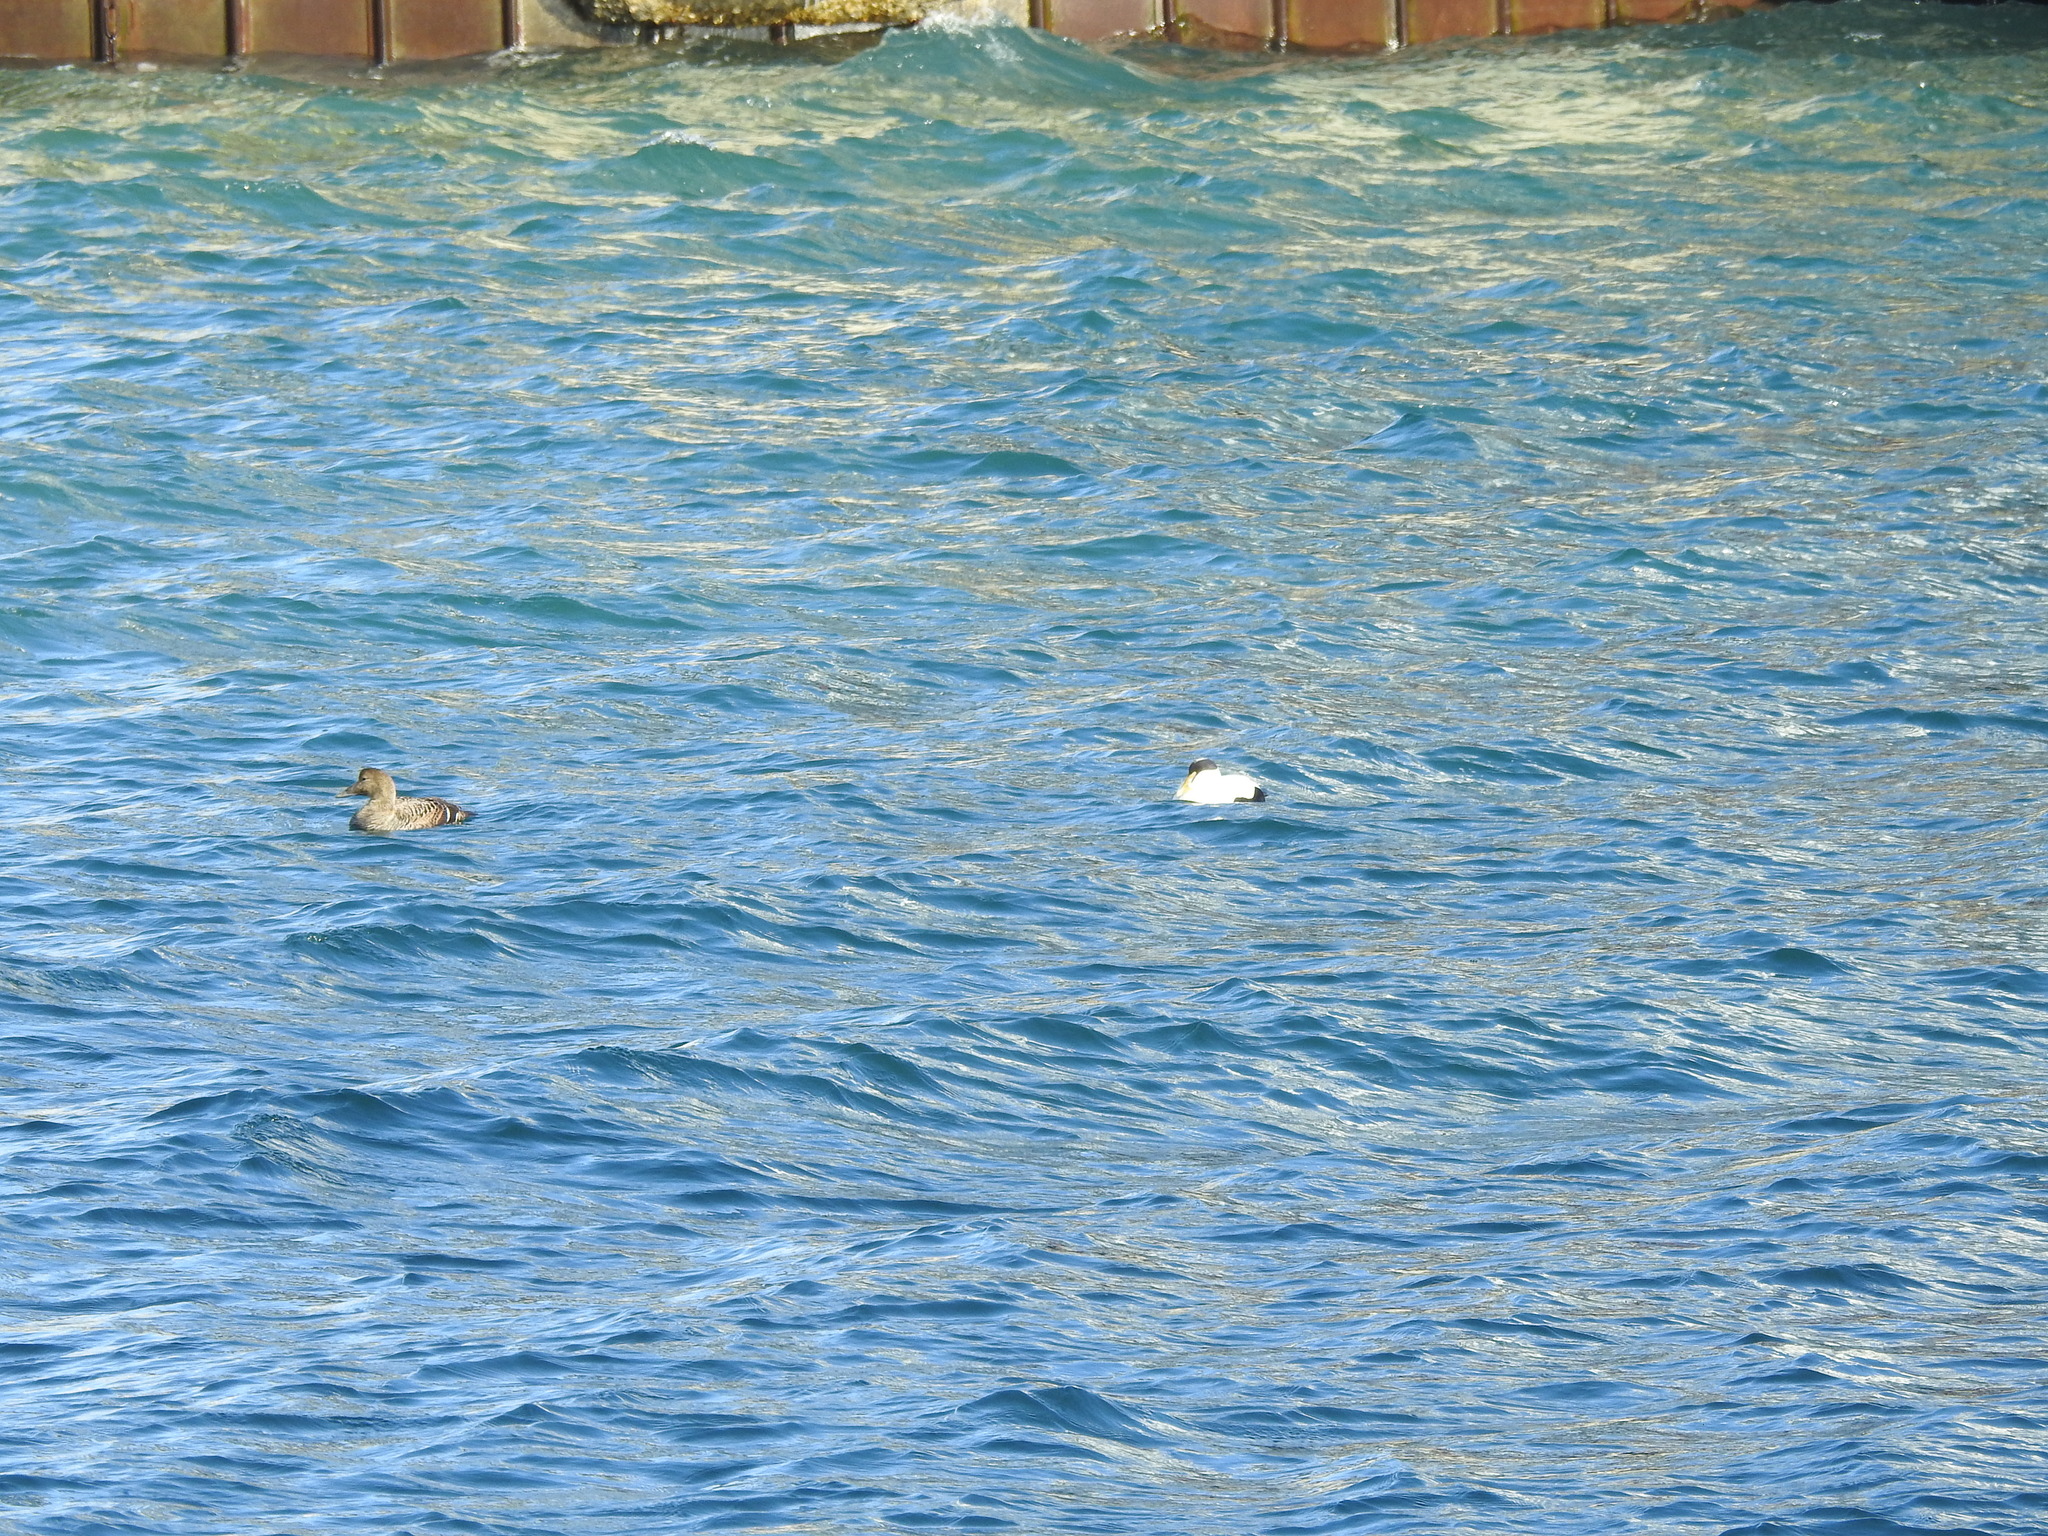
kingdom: Animalia
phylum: Chordata
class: Aves
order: Anseriformes
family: Anatidae
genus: Somateria
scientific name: Somateria mollissima
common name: Common eider
